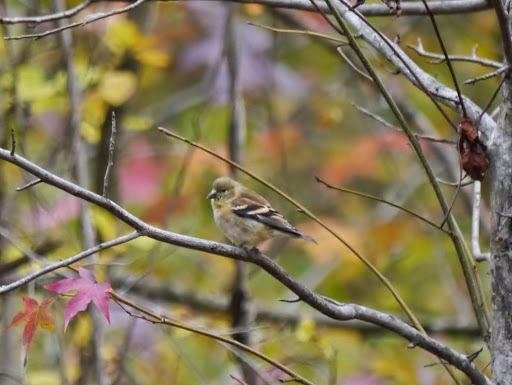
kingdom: Animalia
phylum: Chordata
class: Aves
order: Passeriformes
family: Fringillidae
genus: Spinus
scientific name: Spinus tristis
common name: American goldfinch
